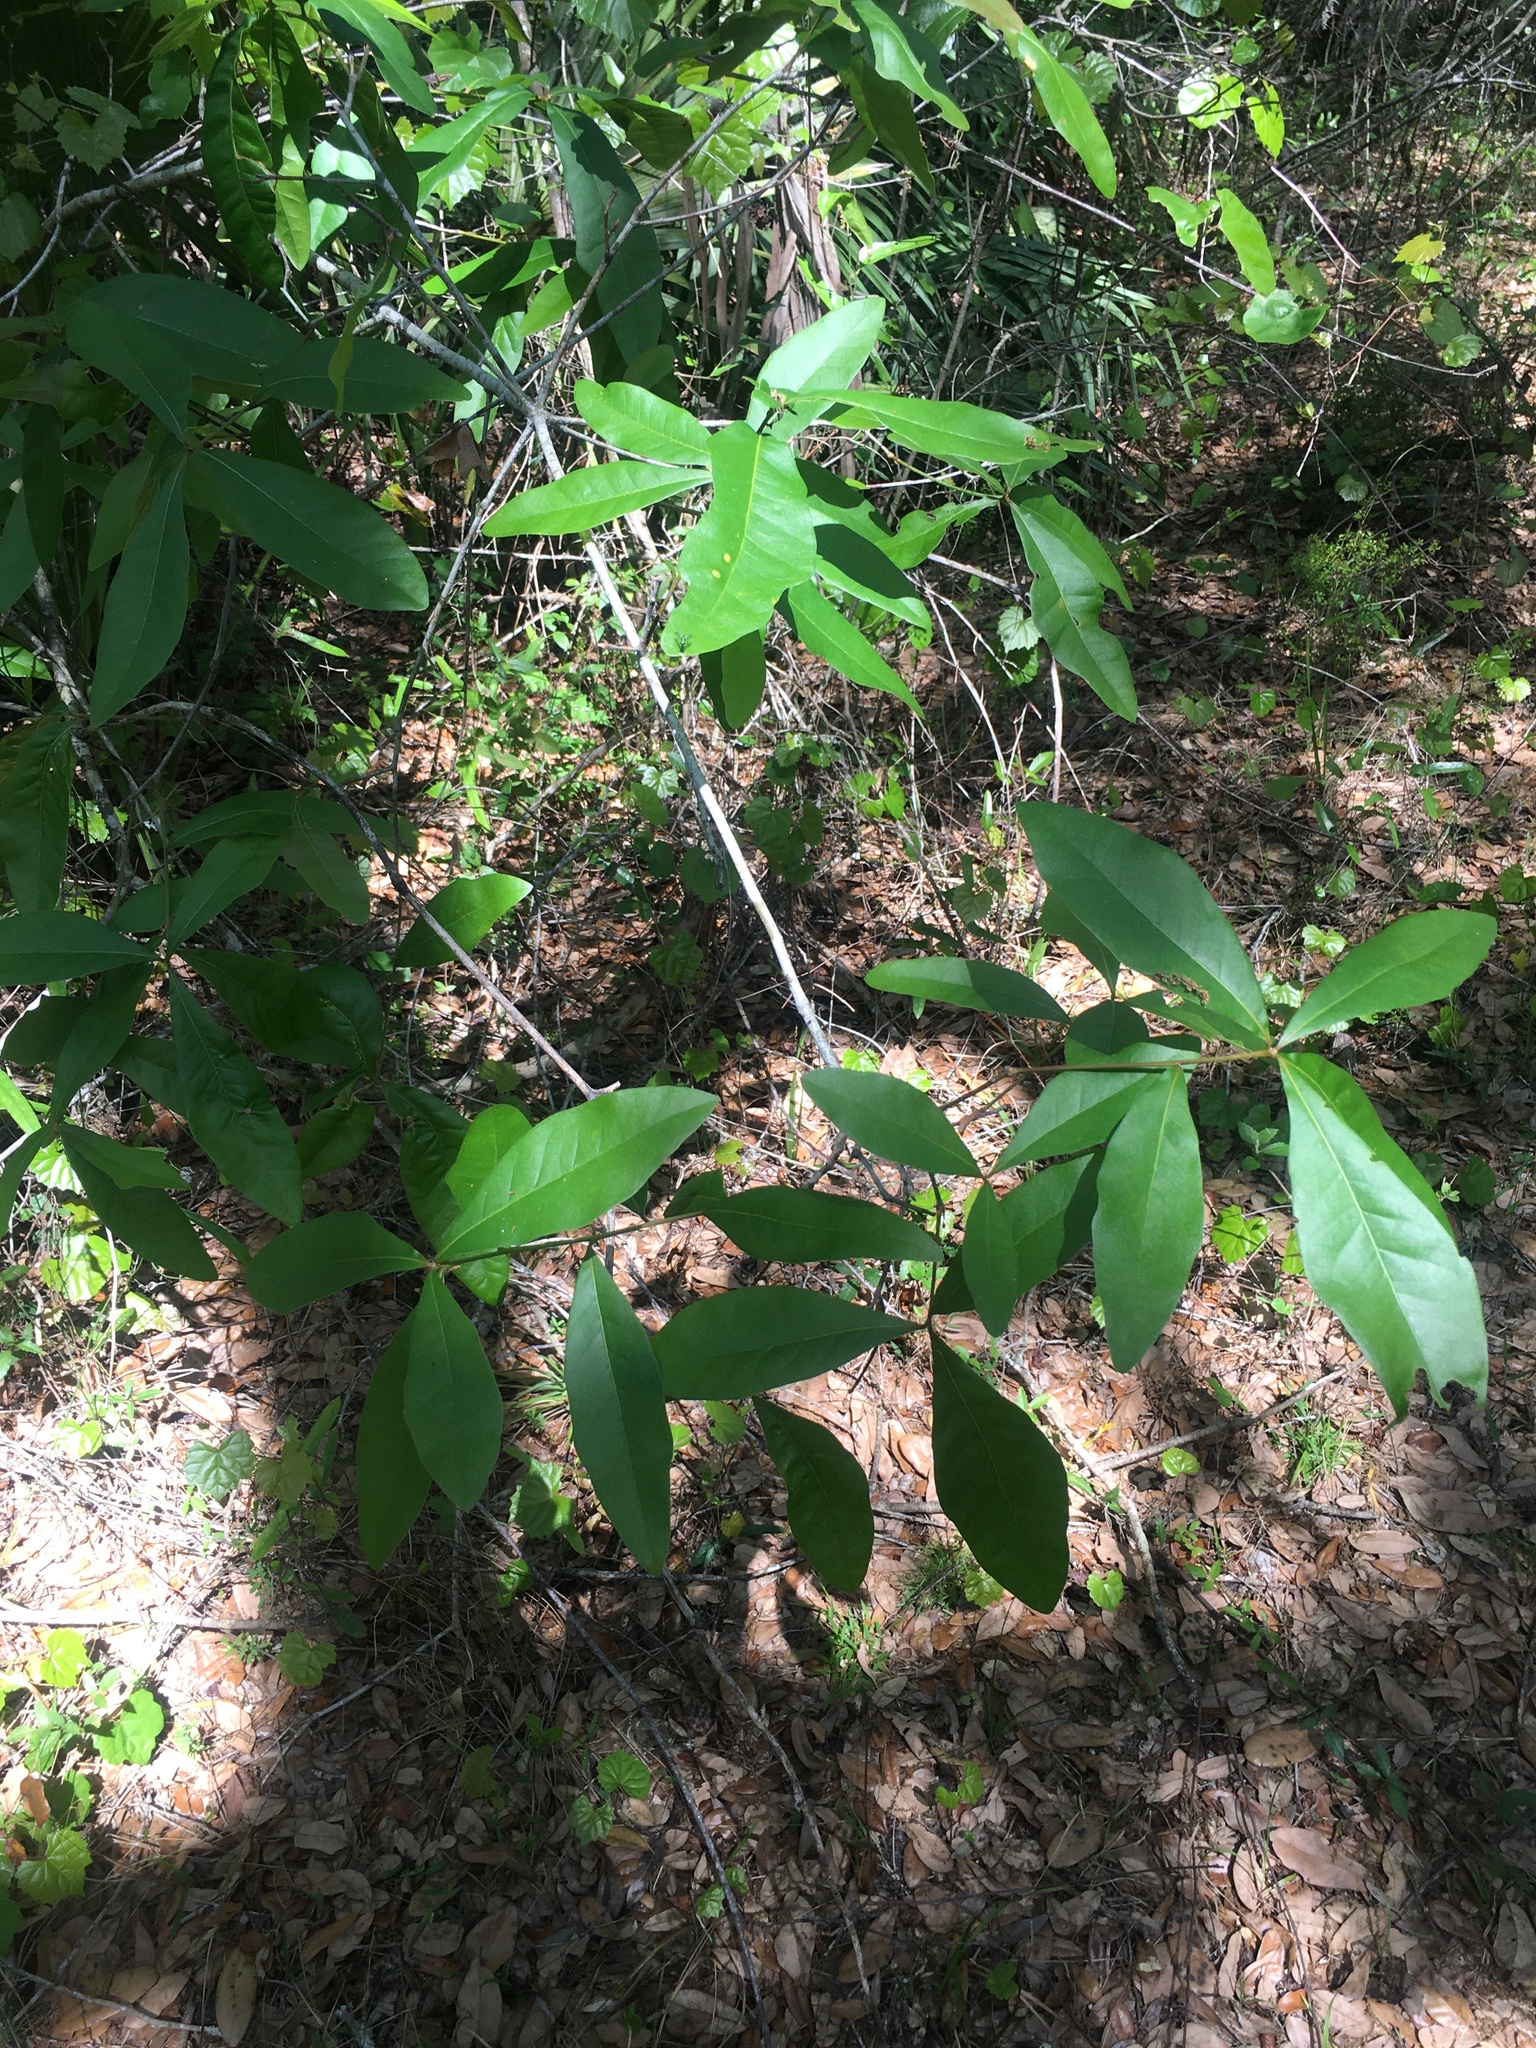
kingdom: Plantae
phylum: Tracheophyta
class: Magnoliopsida
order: Fagales
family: Fagaceae
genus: Quercus
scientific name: Quercus laurifolia
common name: Swamp laurel oak
